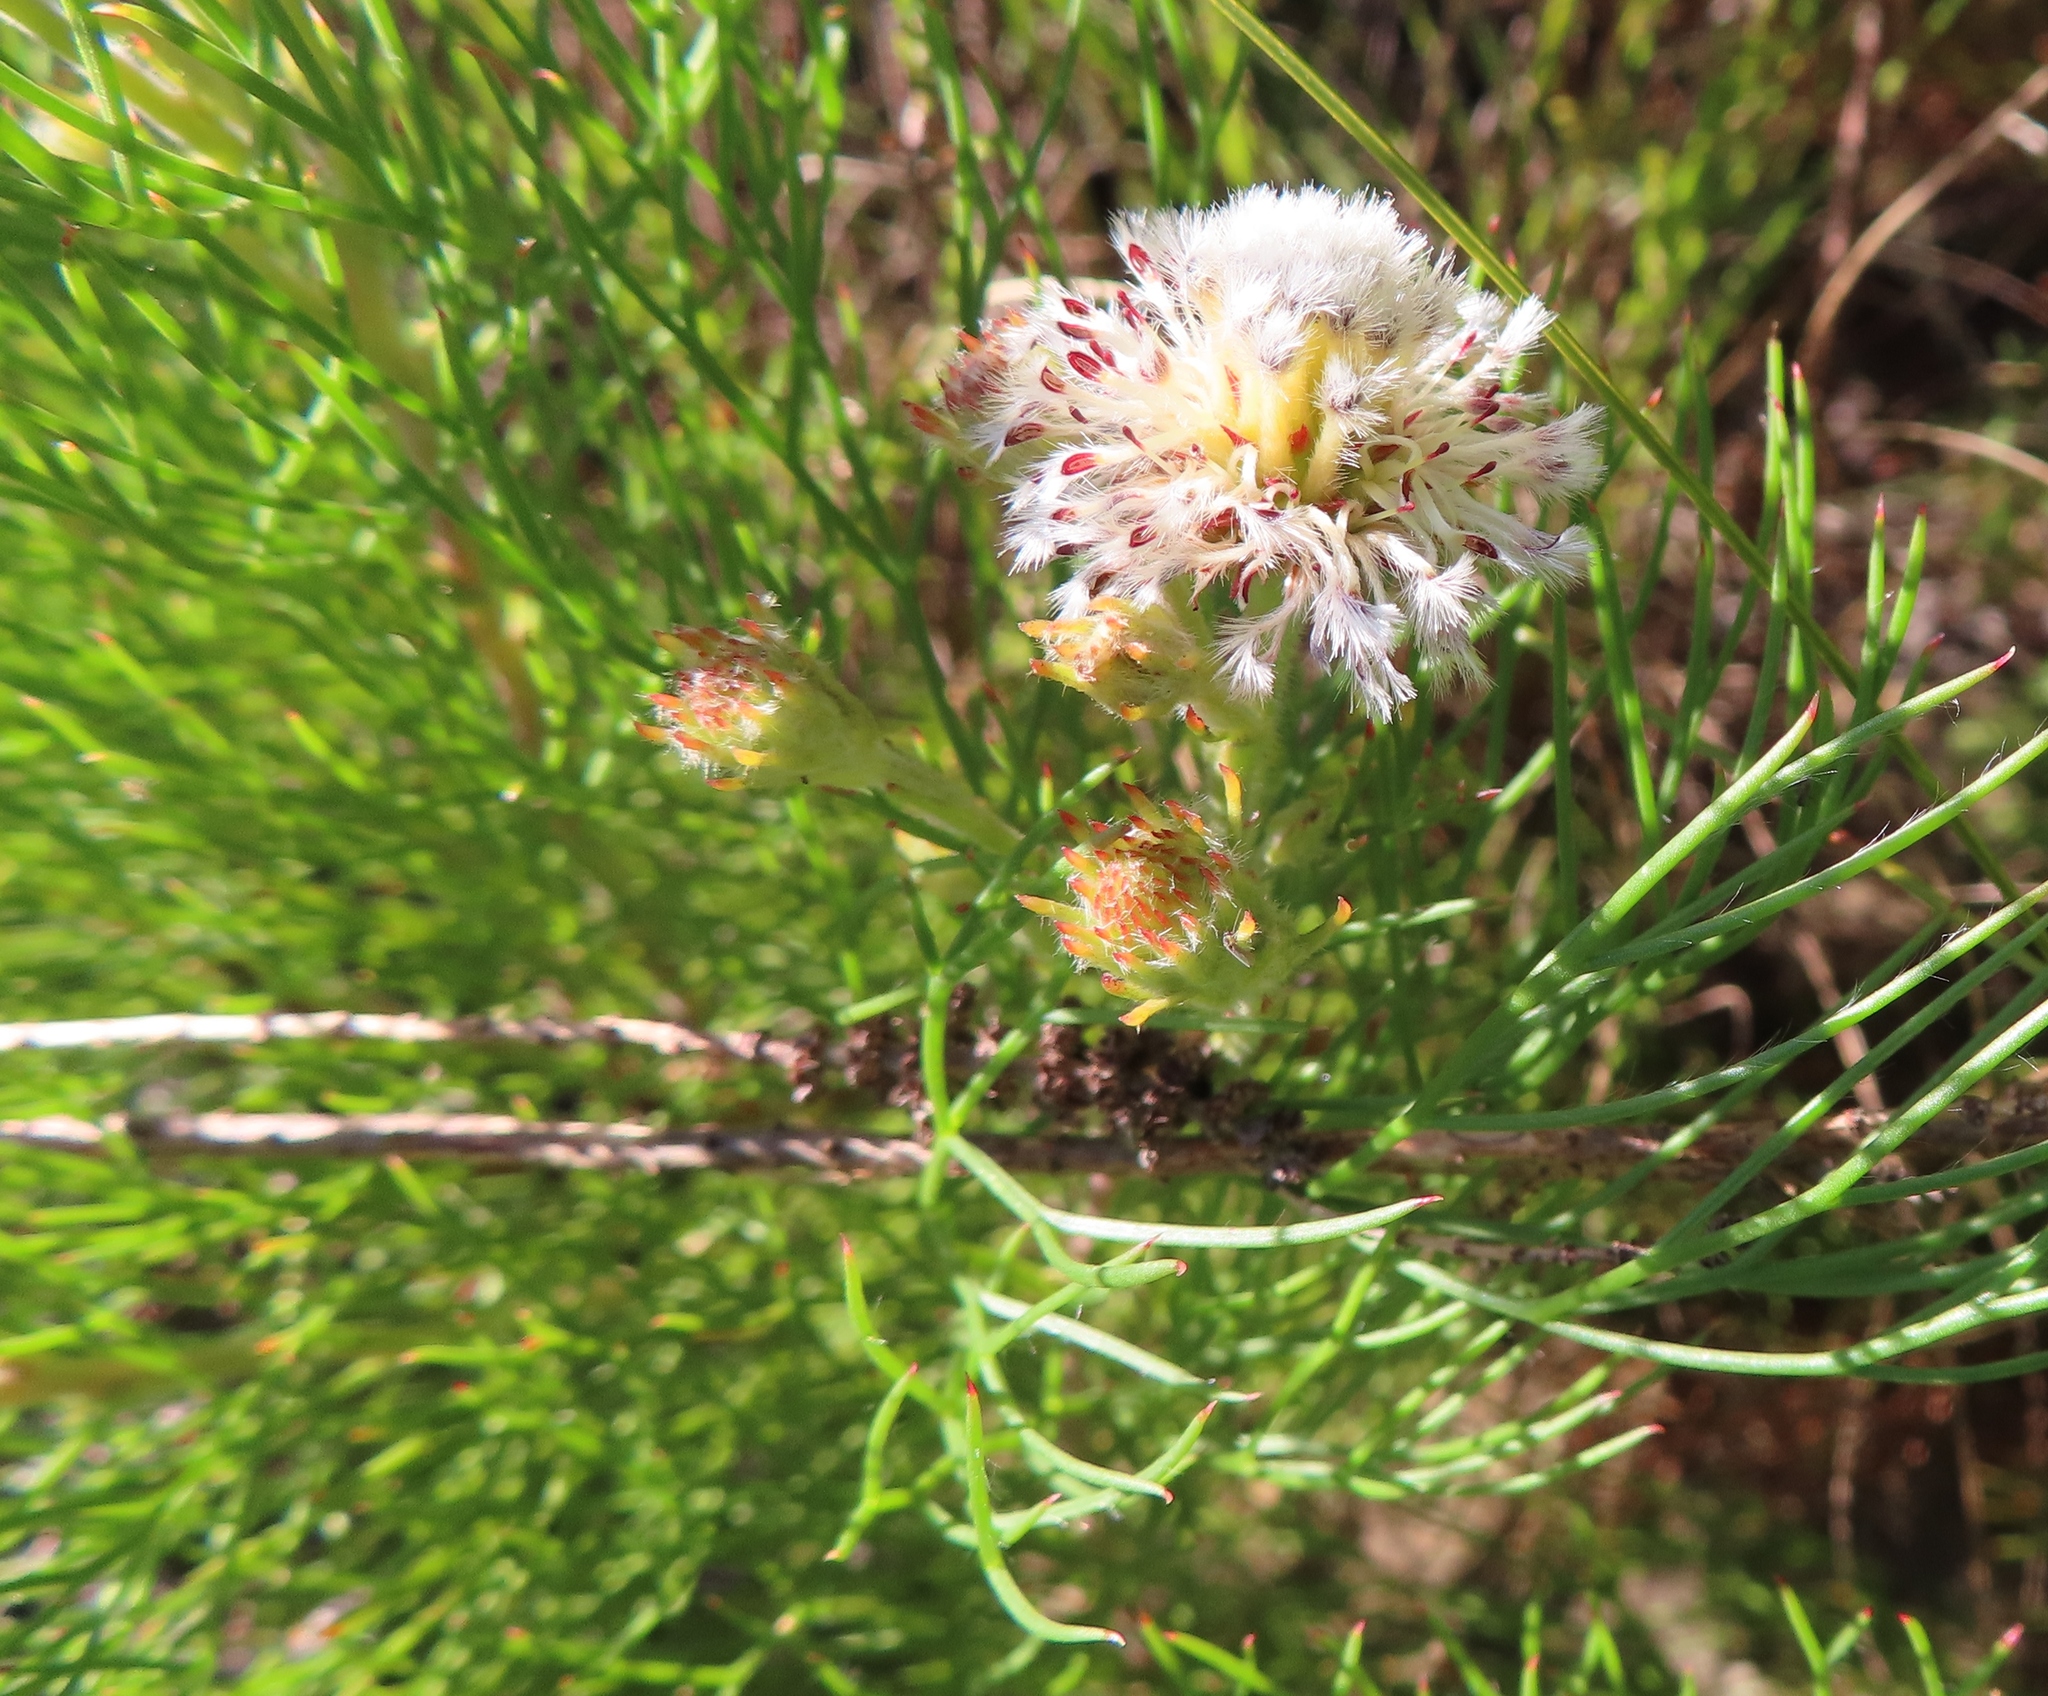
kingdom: Plantae
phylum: Tracheophyta
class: Magnoliopsida
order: Proteales
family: Proteaceae
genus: Serruria
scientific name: Serruria kraussii
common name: Snowball spiderhead
